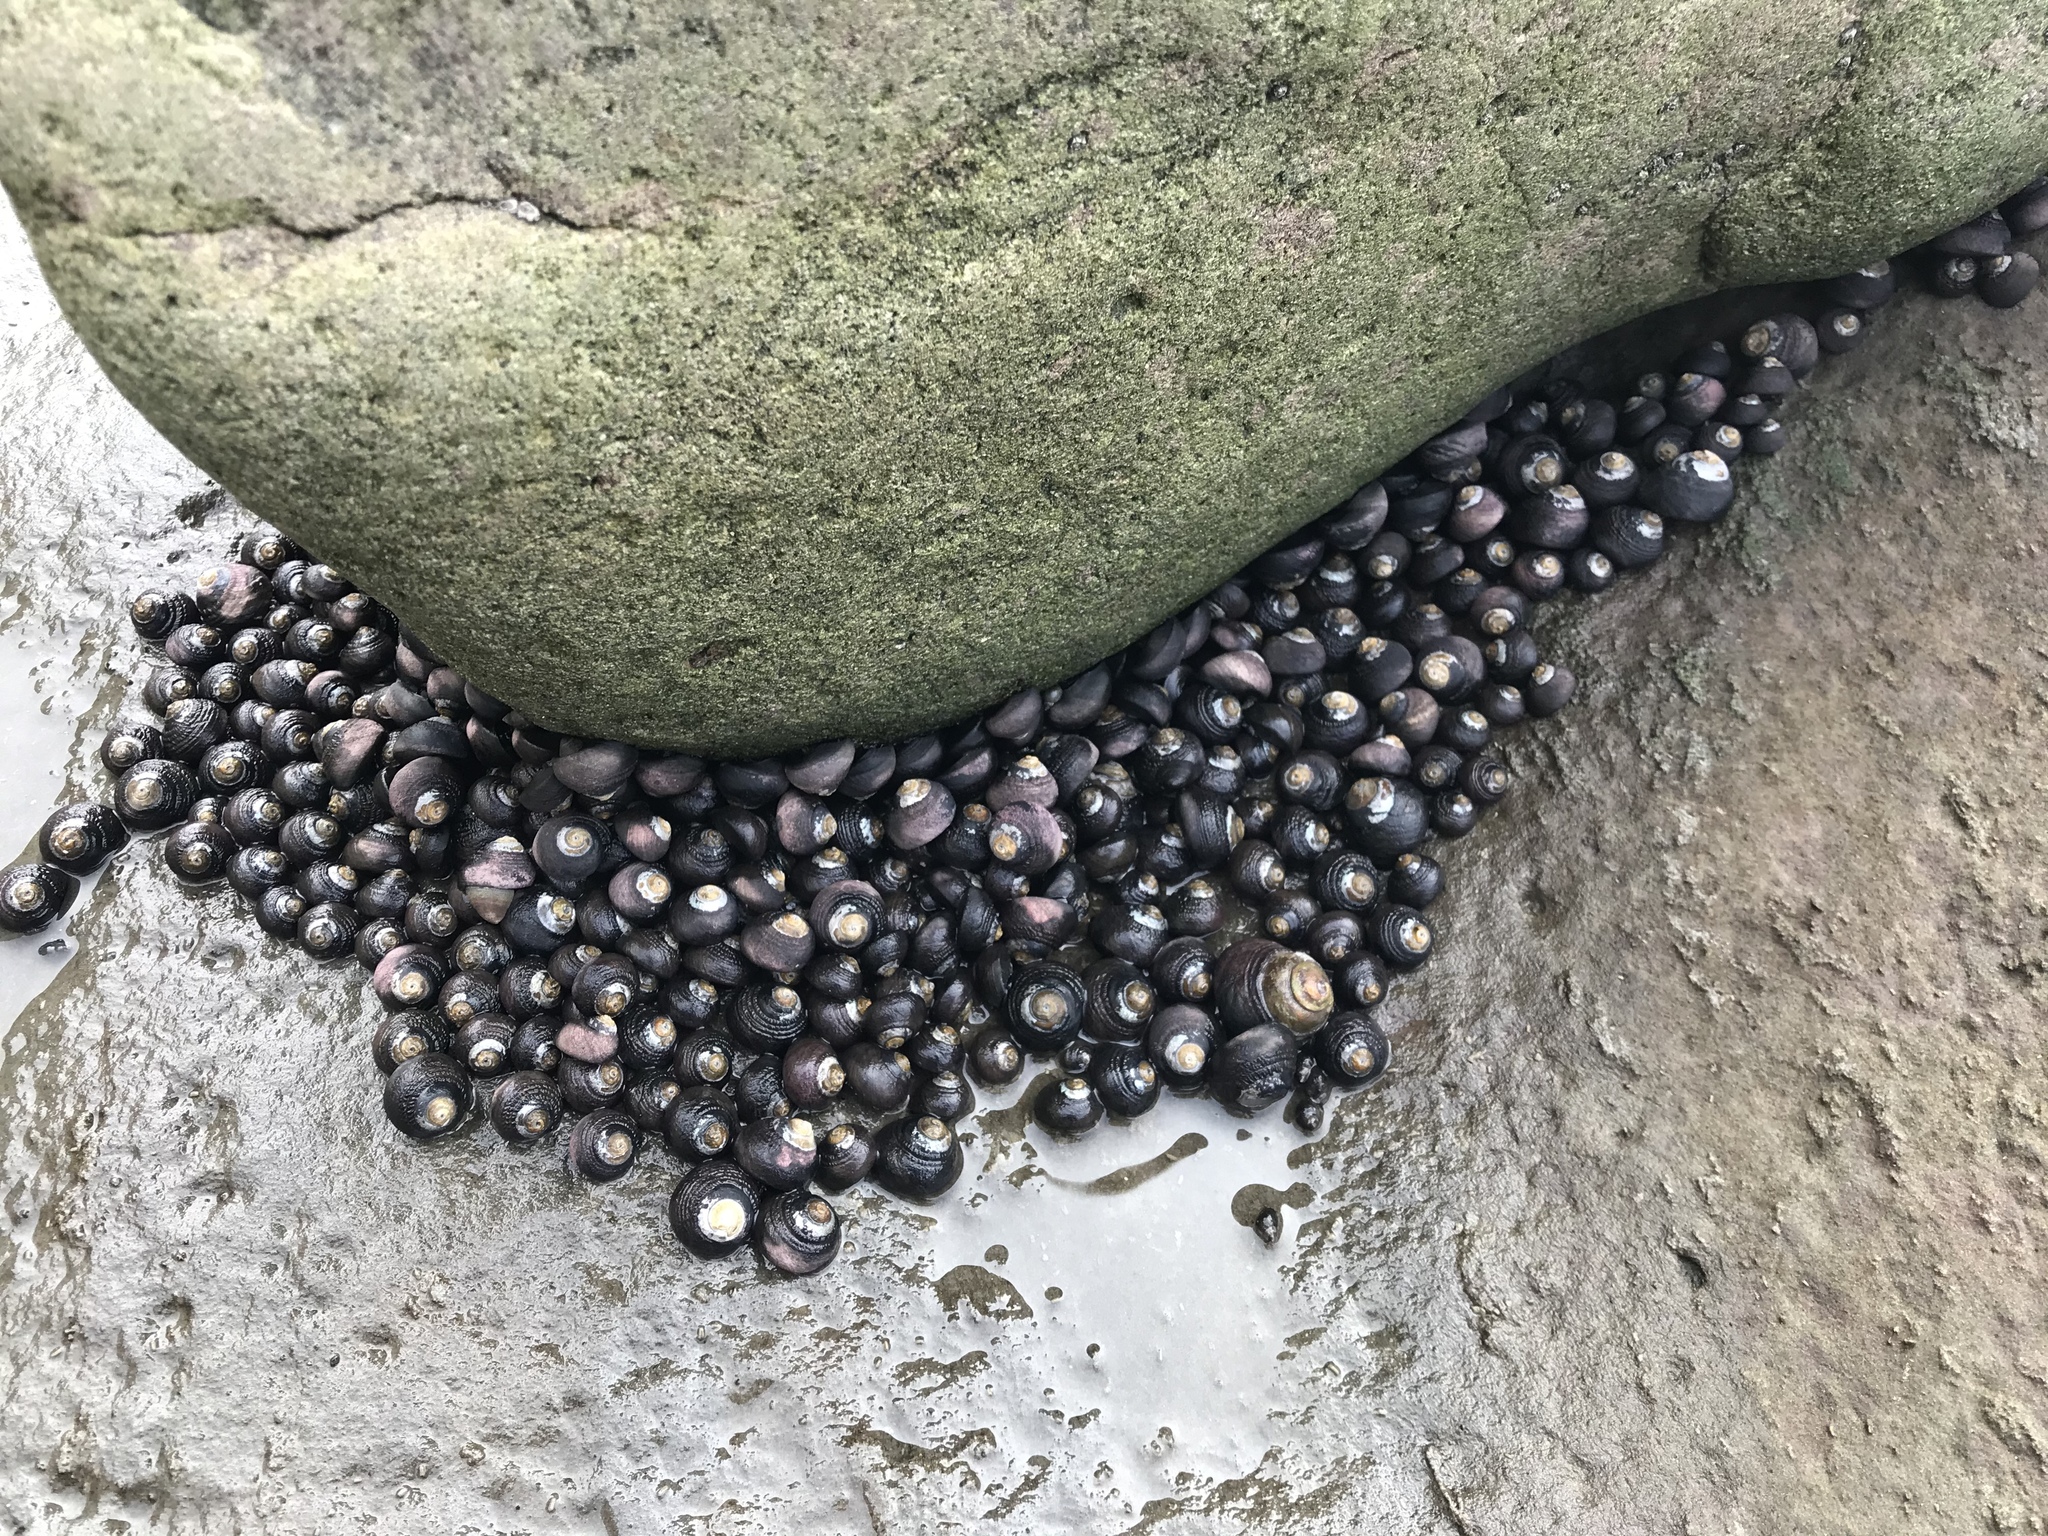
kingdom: Animalia
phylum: Mollusca
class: Gastropoda
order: Trochida
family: Tegulidae
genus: Tegula
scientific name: Tegula funebralis
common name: Black tegula
